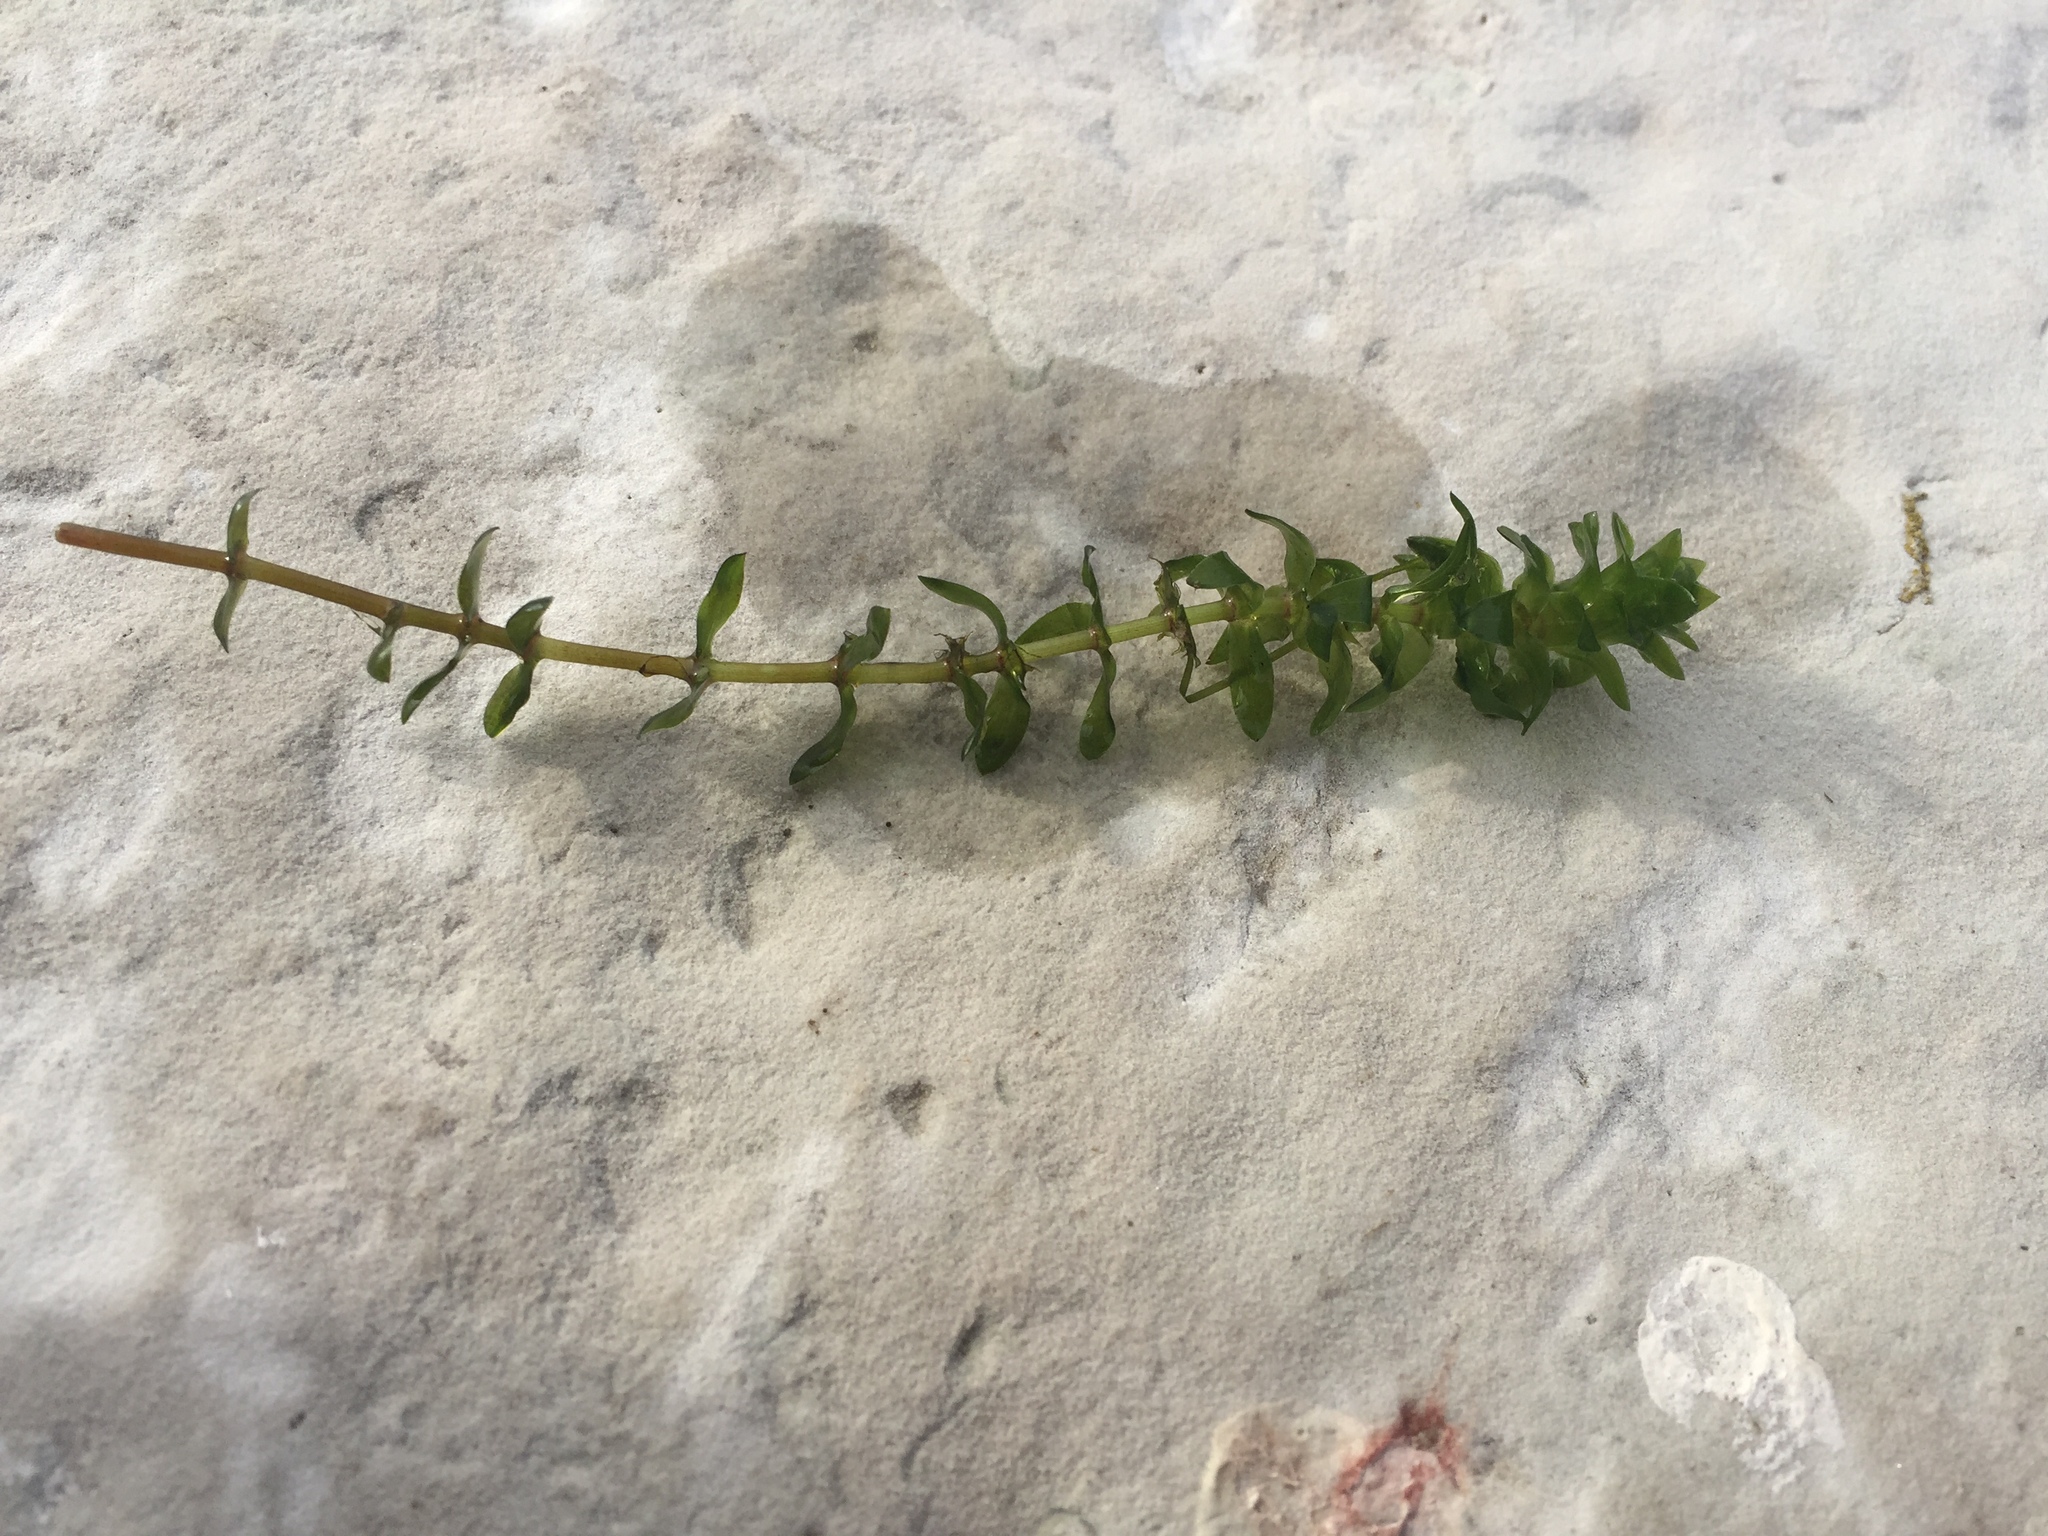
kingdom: Plantae
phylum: Tracheophyta
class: Liliopsida
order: Alismatales
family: Hydrocharitaceae
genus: Elodea
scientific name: Elodea canadensis
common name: Canadian waterweed
